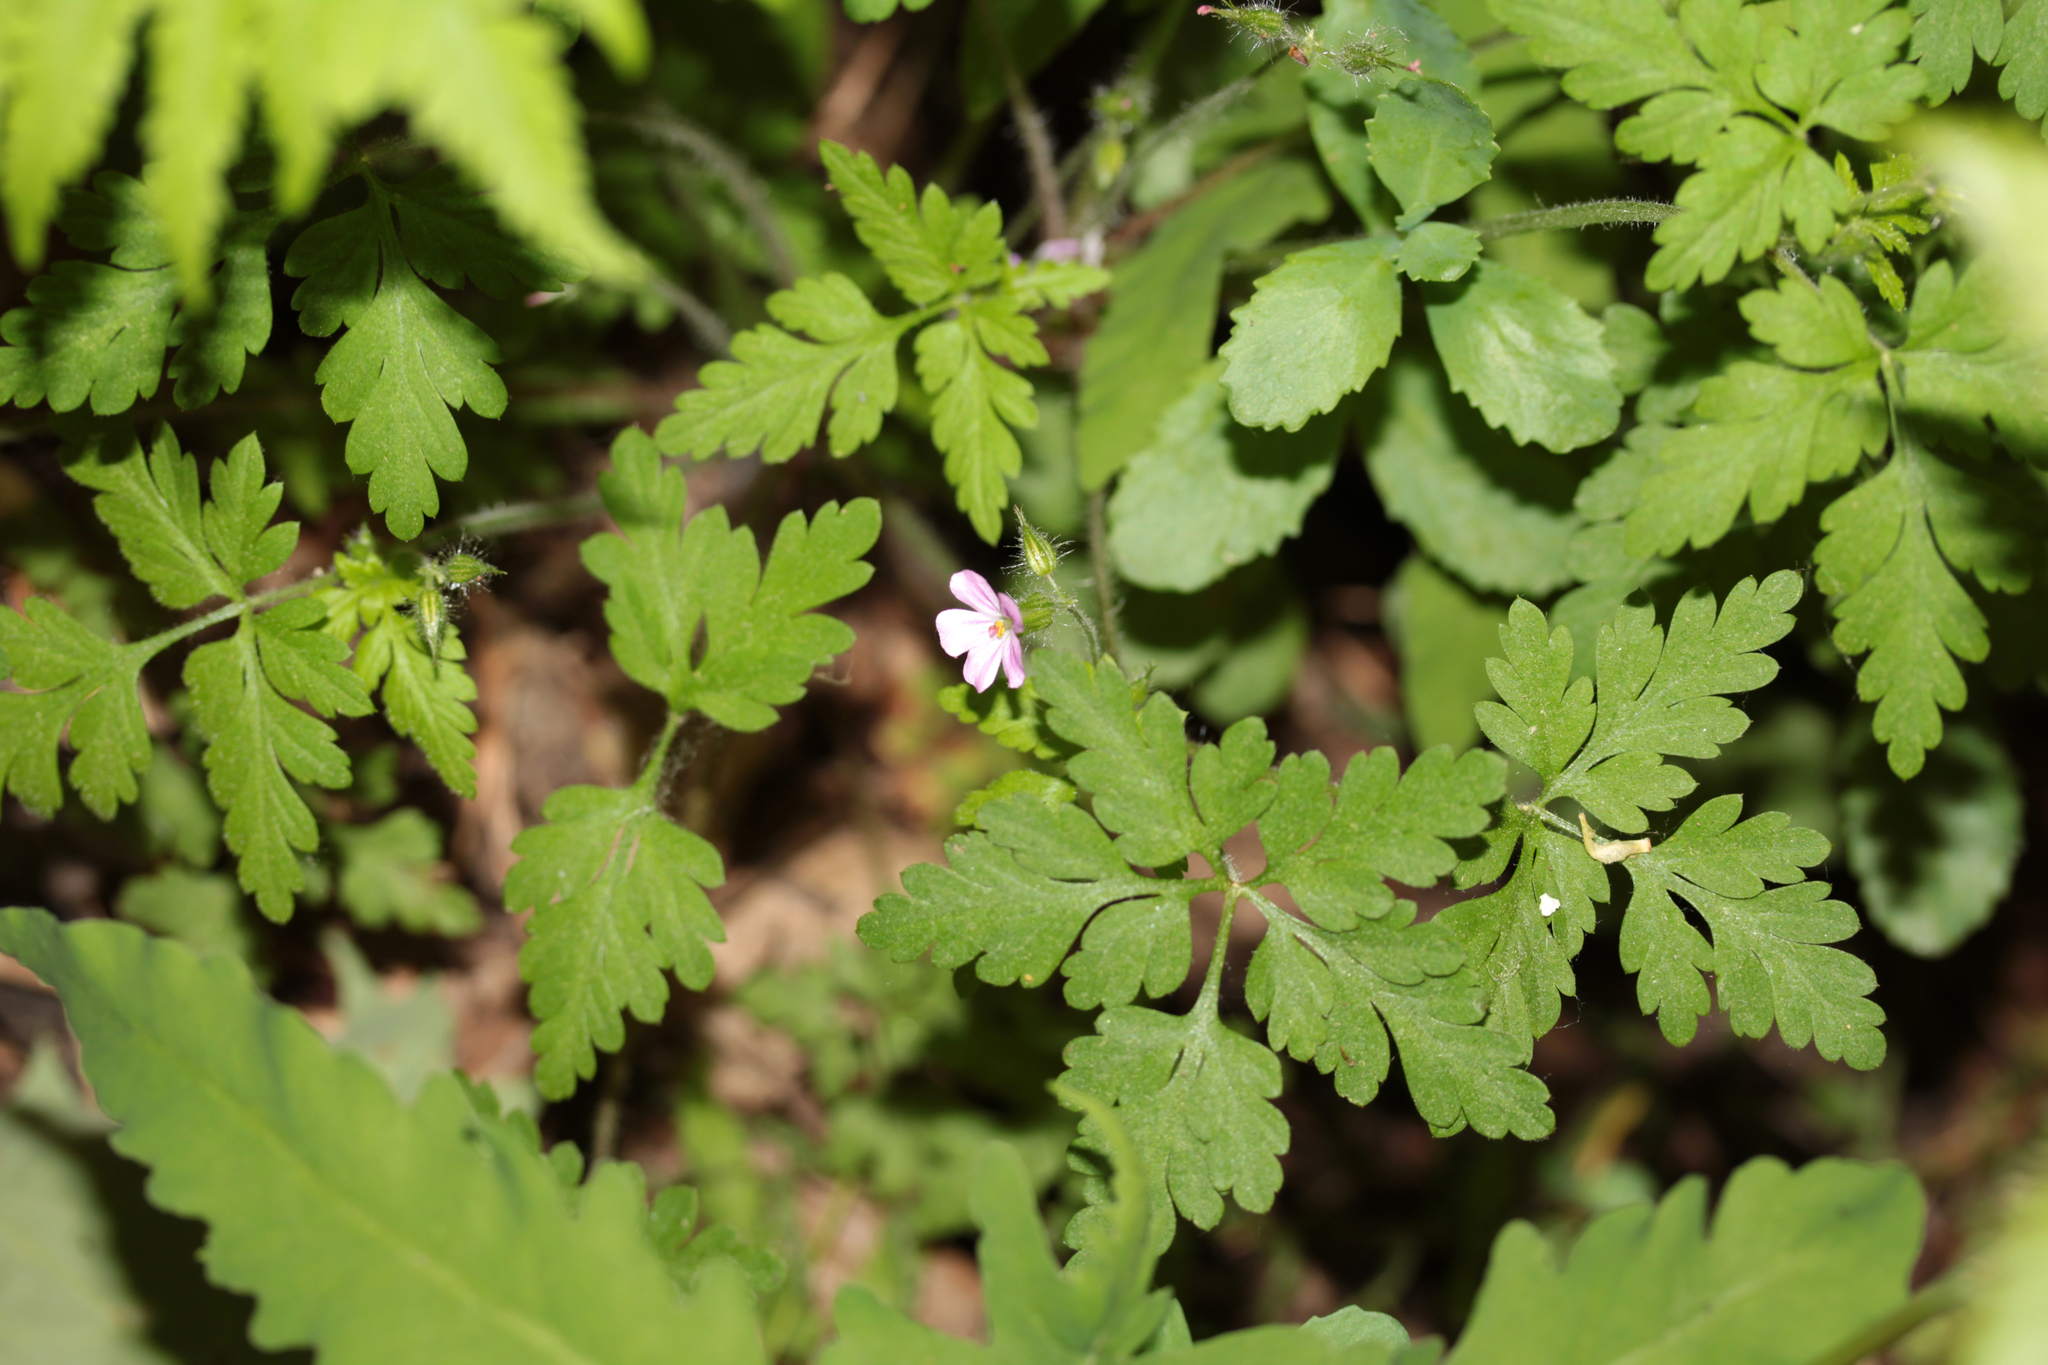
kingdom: Plantae
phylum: Tracheophyta
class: Magnoliopsida
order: Geraniales
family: Geraniaceae
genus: Geranium
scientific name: Geranium robertianum
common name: Herb-robert
